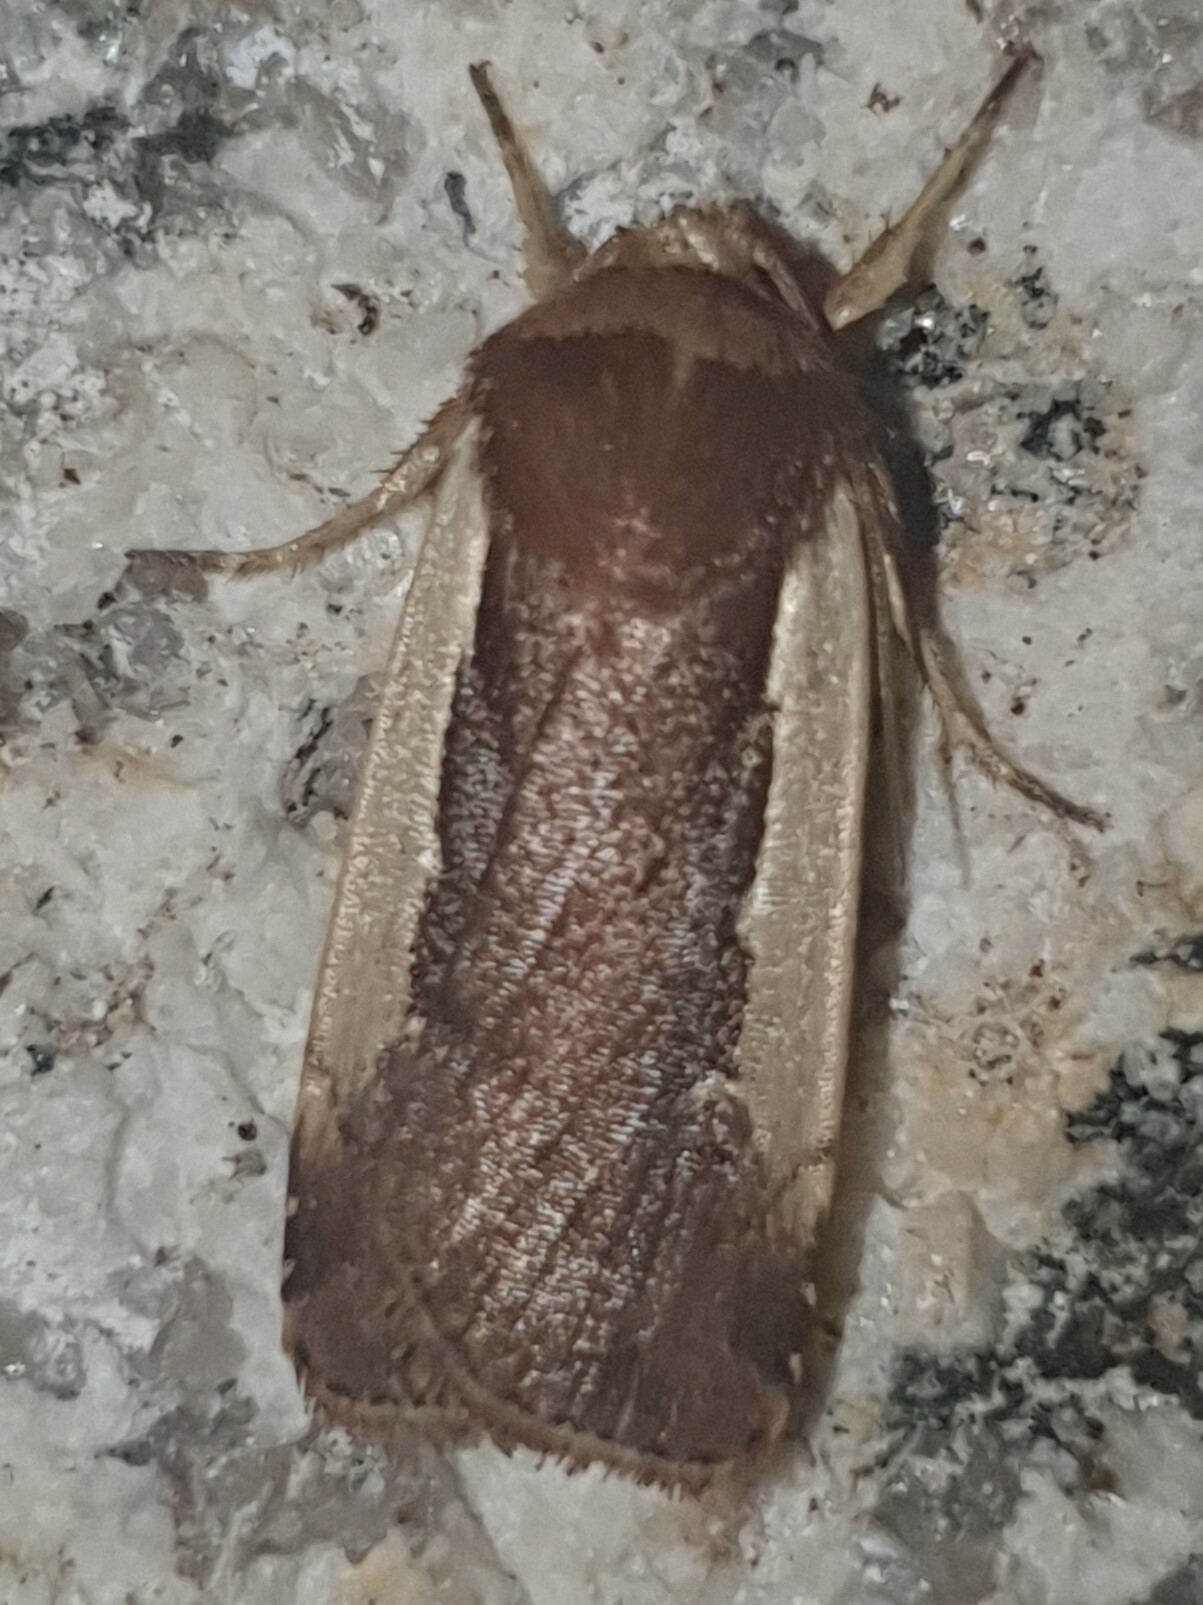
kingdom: Animalia
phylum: Arthropoda
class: Insecta
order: Lepidoptera
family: Noctuidae
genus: Ochropleura
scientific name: Ochropleura plecta
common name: Flame shoulder
